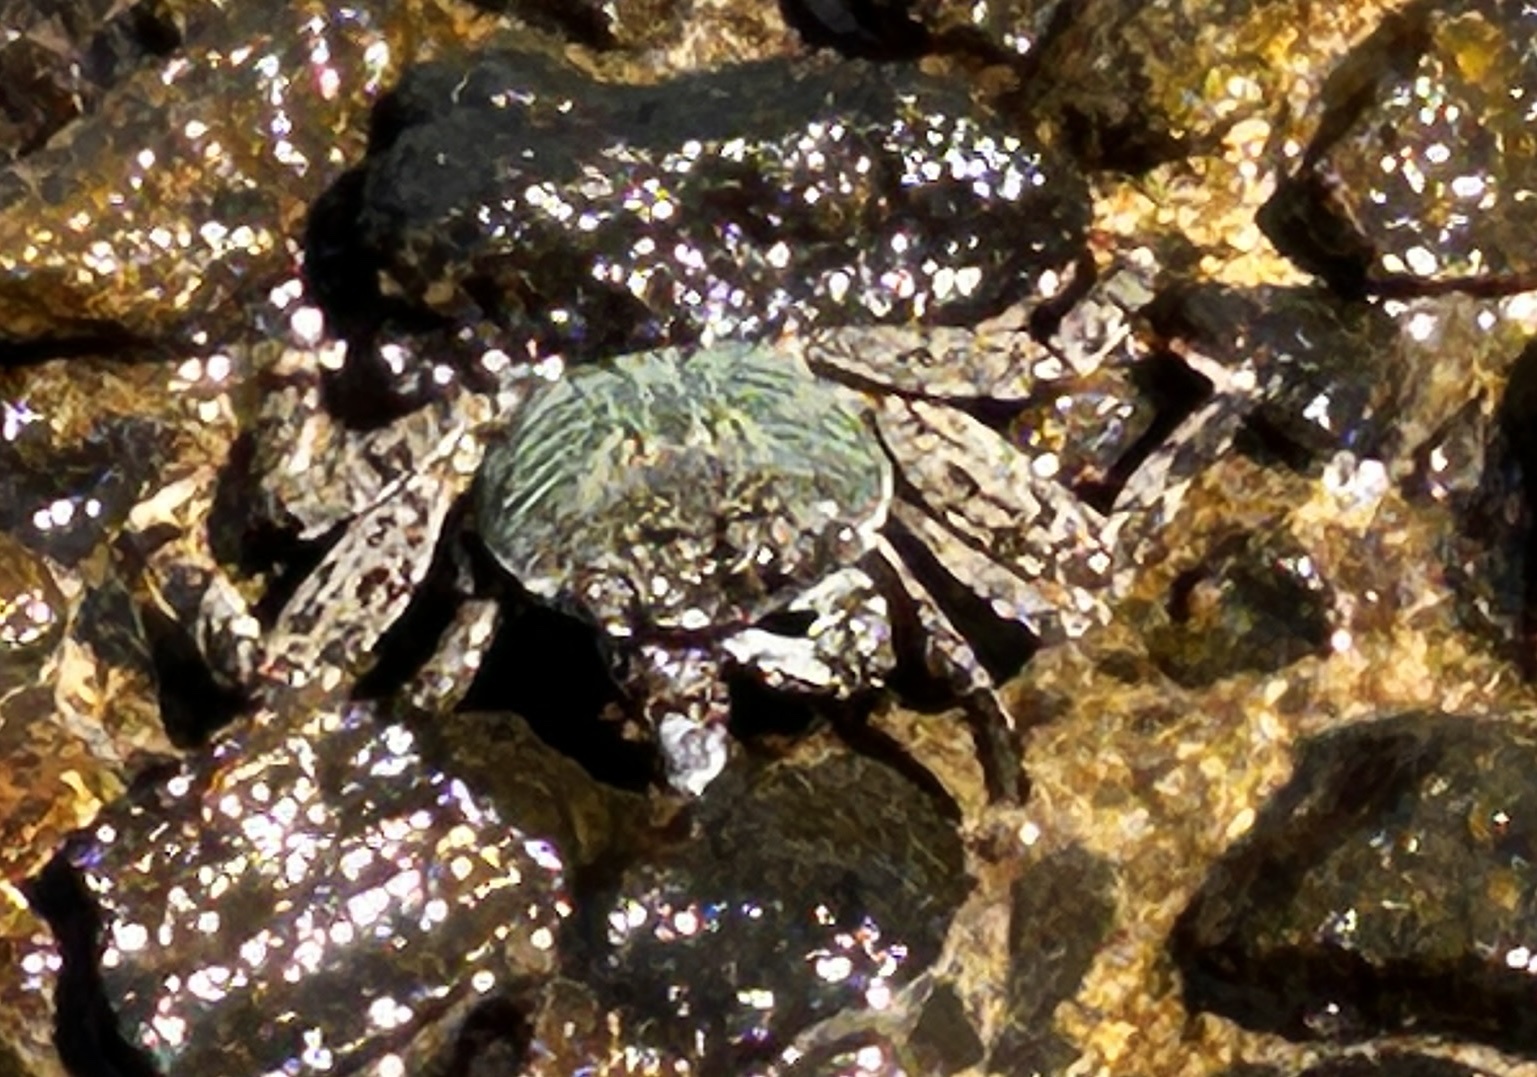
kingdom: Animalia
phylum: Arthropoda
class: Malacostraca
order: Decapoda
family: Grapsidae
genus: Grapsus
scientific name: Grapsus albolineatus
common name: Mottled lightfoot crab
